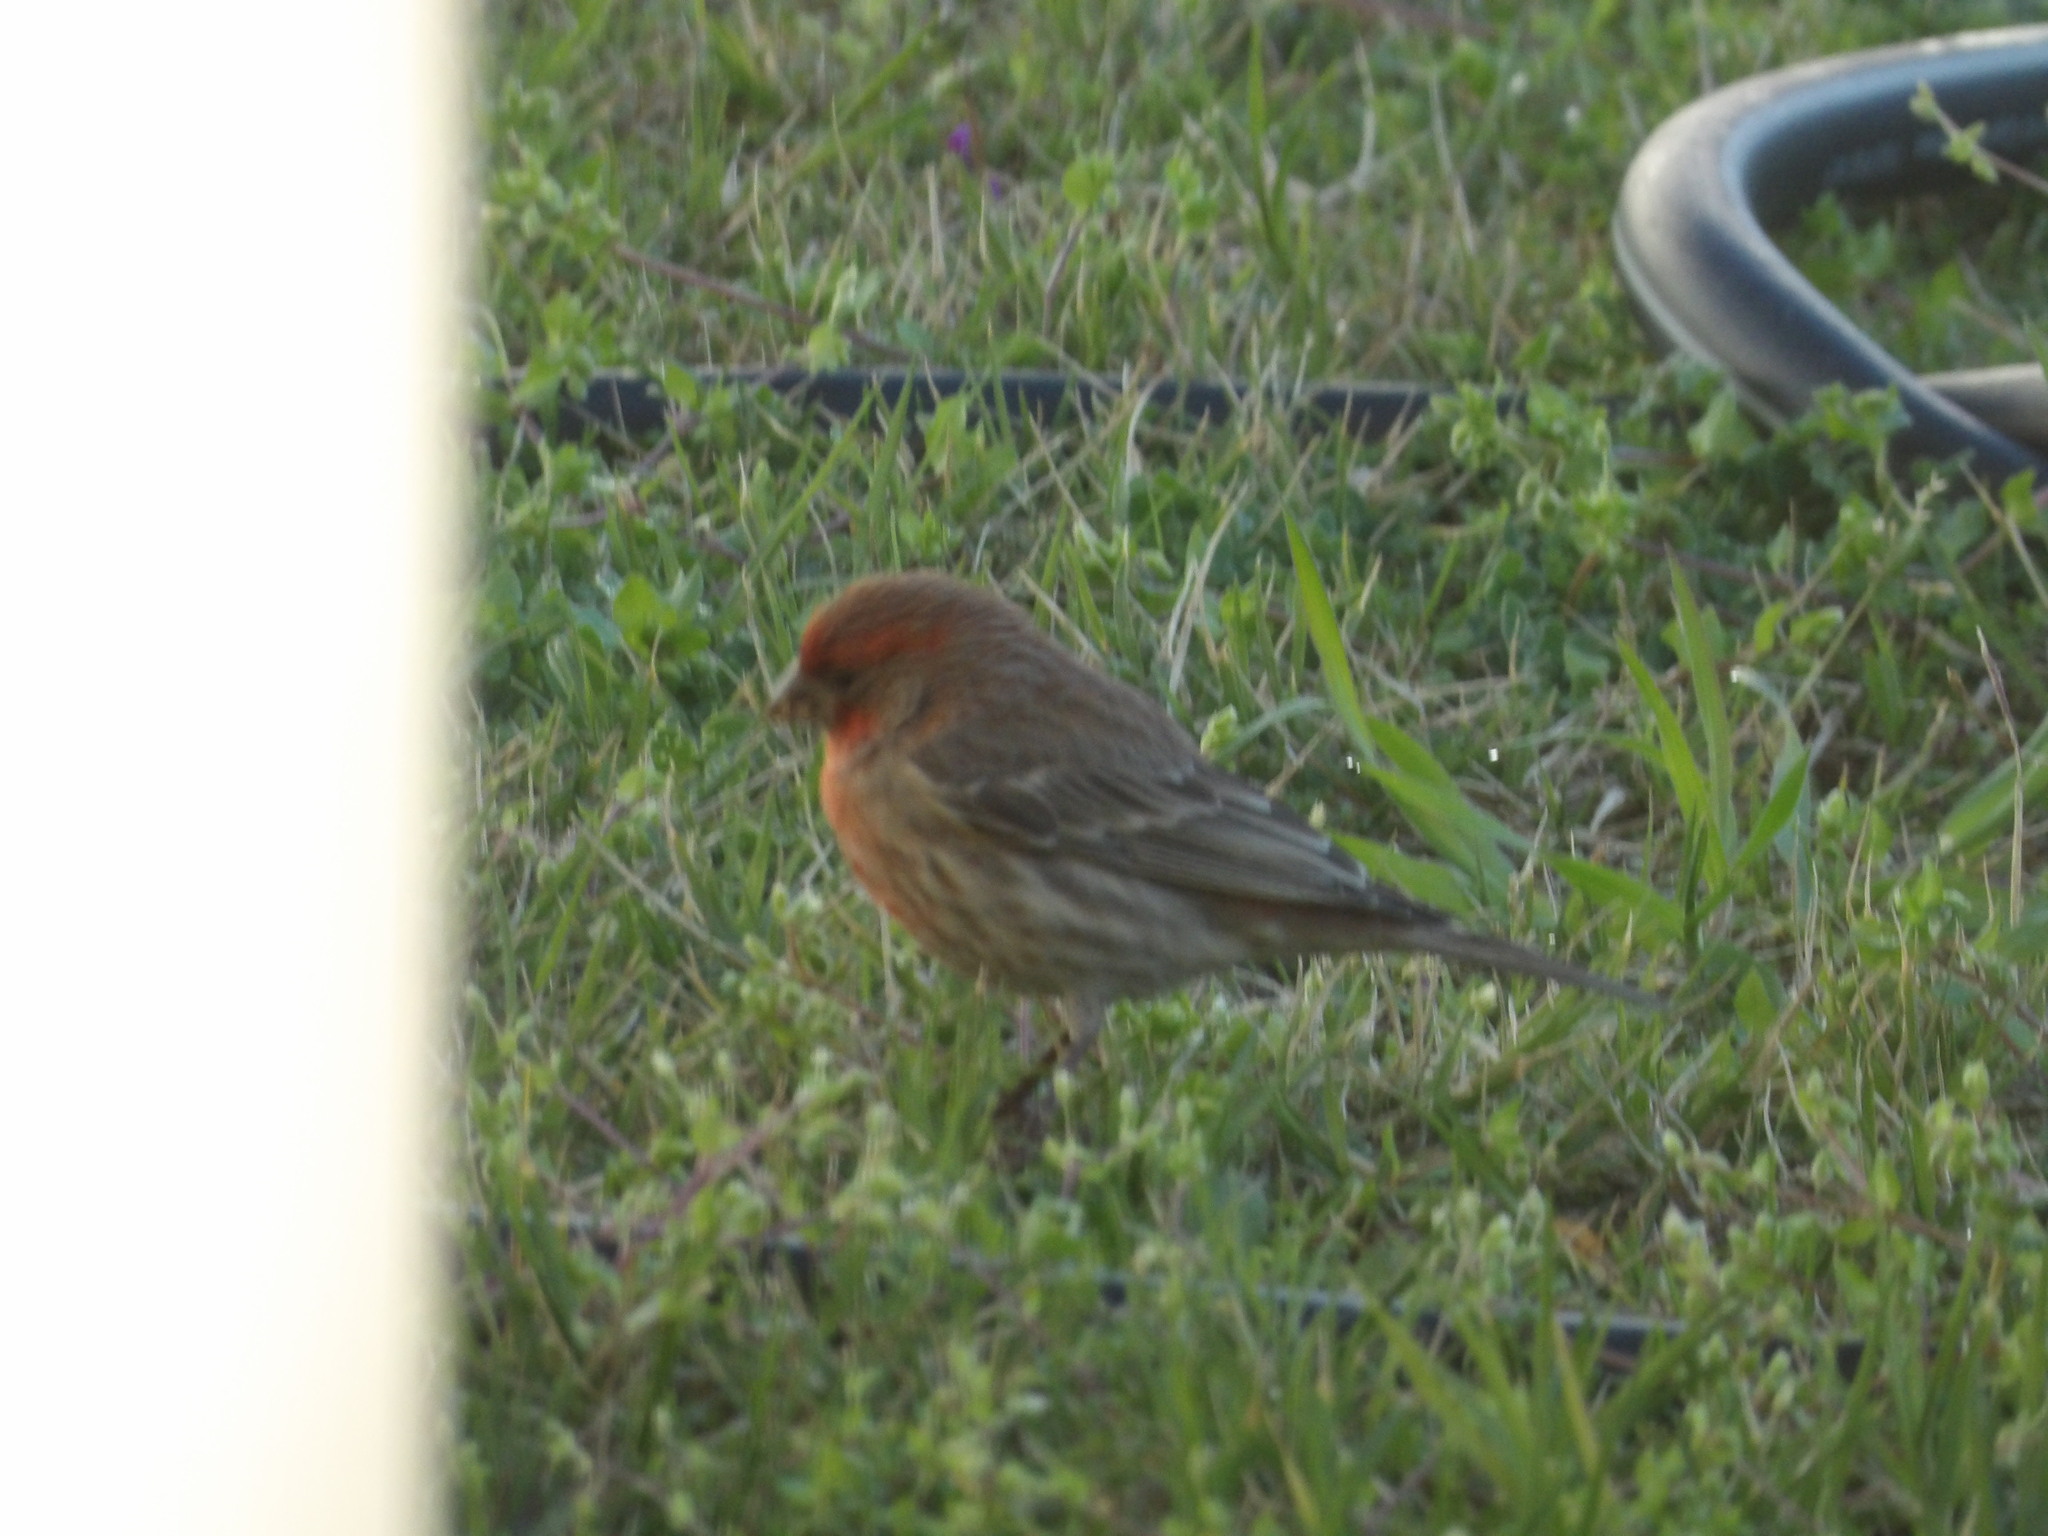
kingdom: Animalia
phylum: Chordata
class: Aves
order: Passeriformes
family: Fringillidae
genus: Haemorhous
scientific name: Haemorhous mexicanus
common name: House finch
